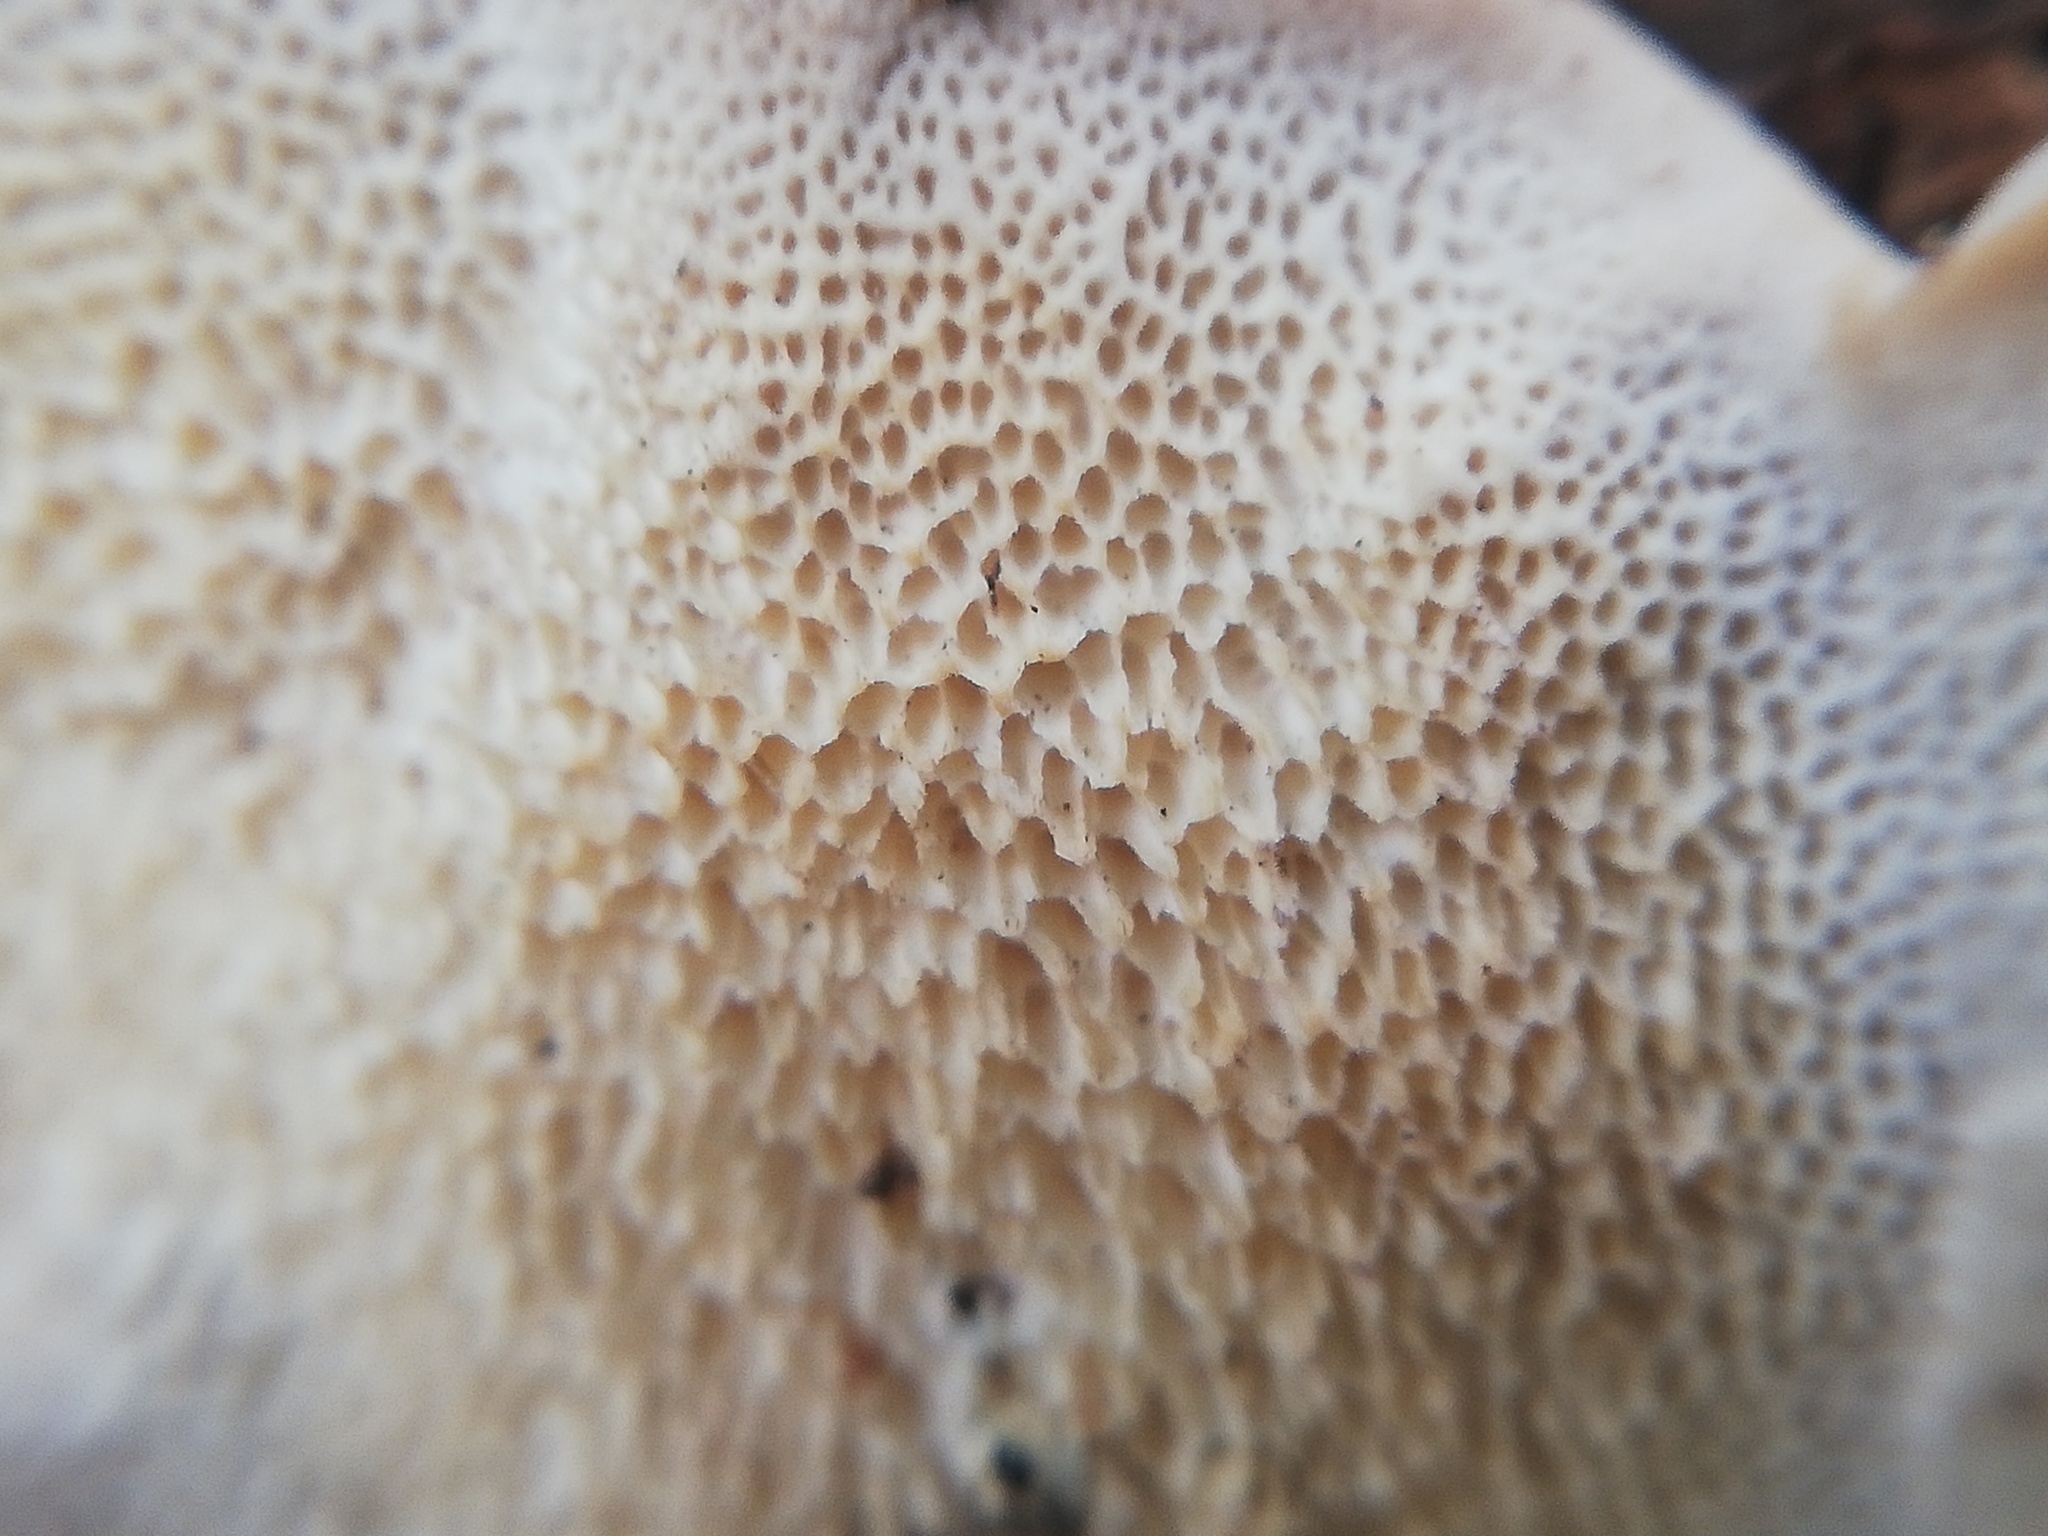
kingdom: Fungi
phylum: Basidiomycota
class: Agaricomycetes
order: Polyporales
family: Irpicaceae
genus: Byssomerulius
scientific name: Byssomerulius corium
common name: Netted crust
